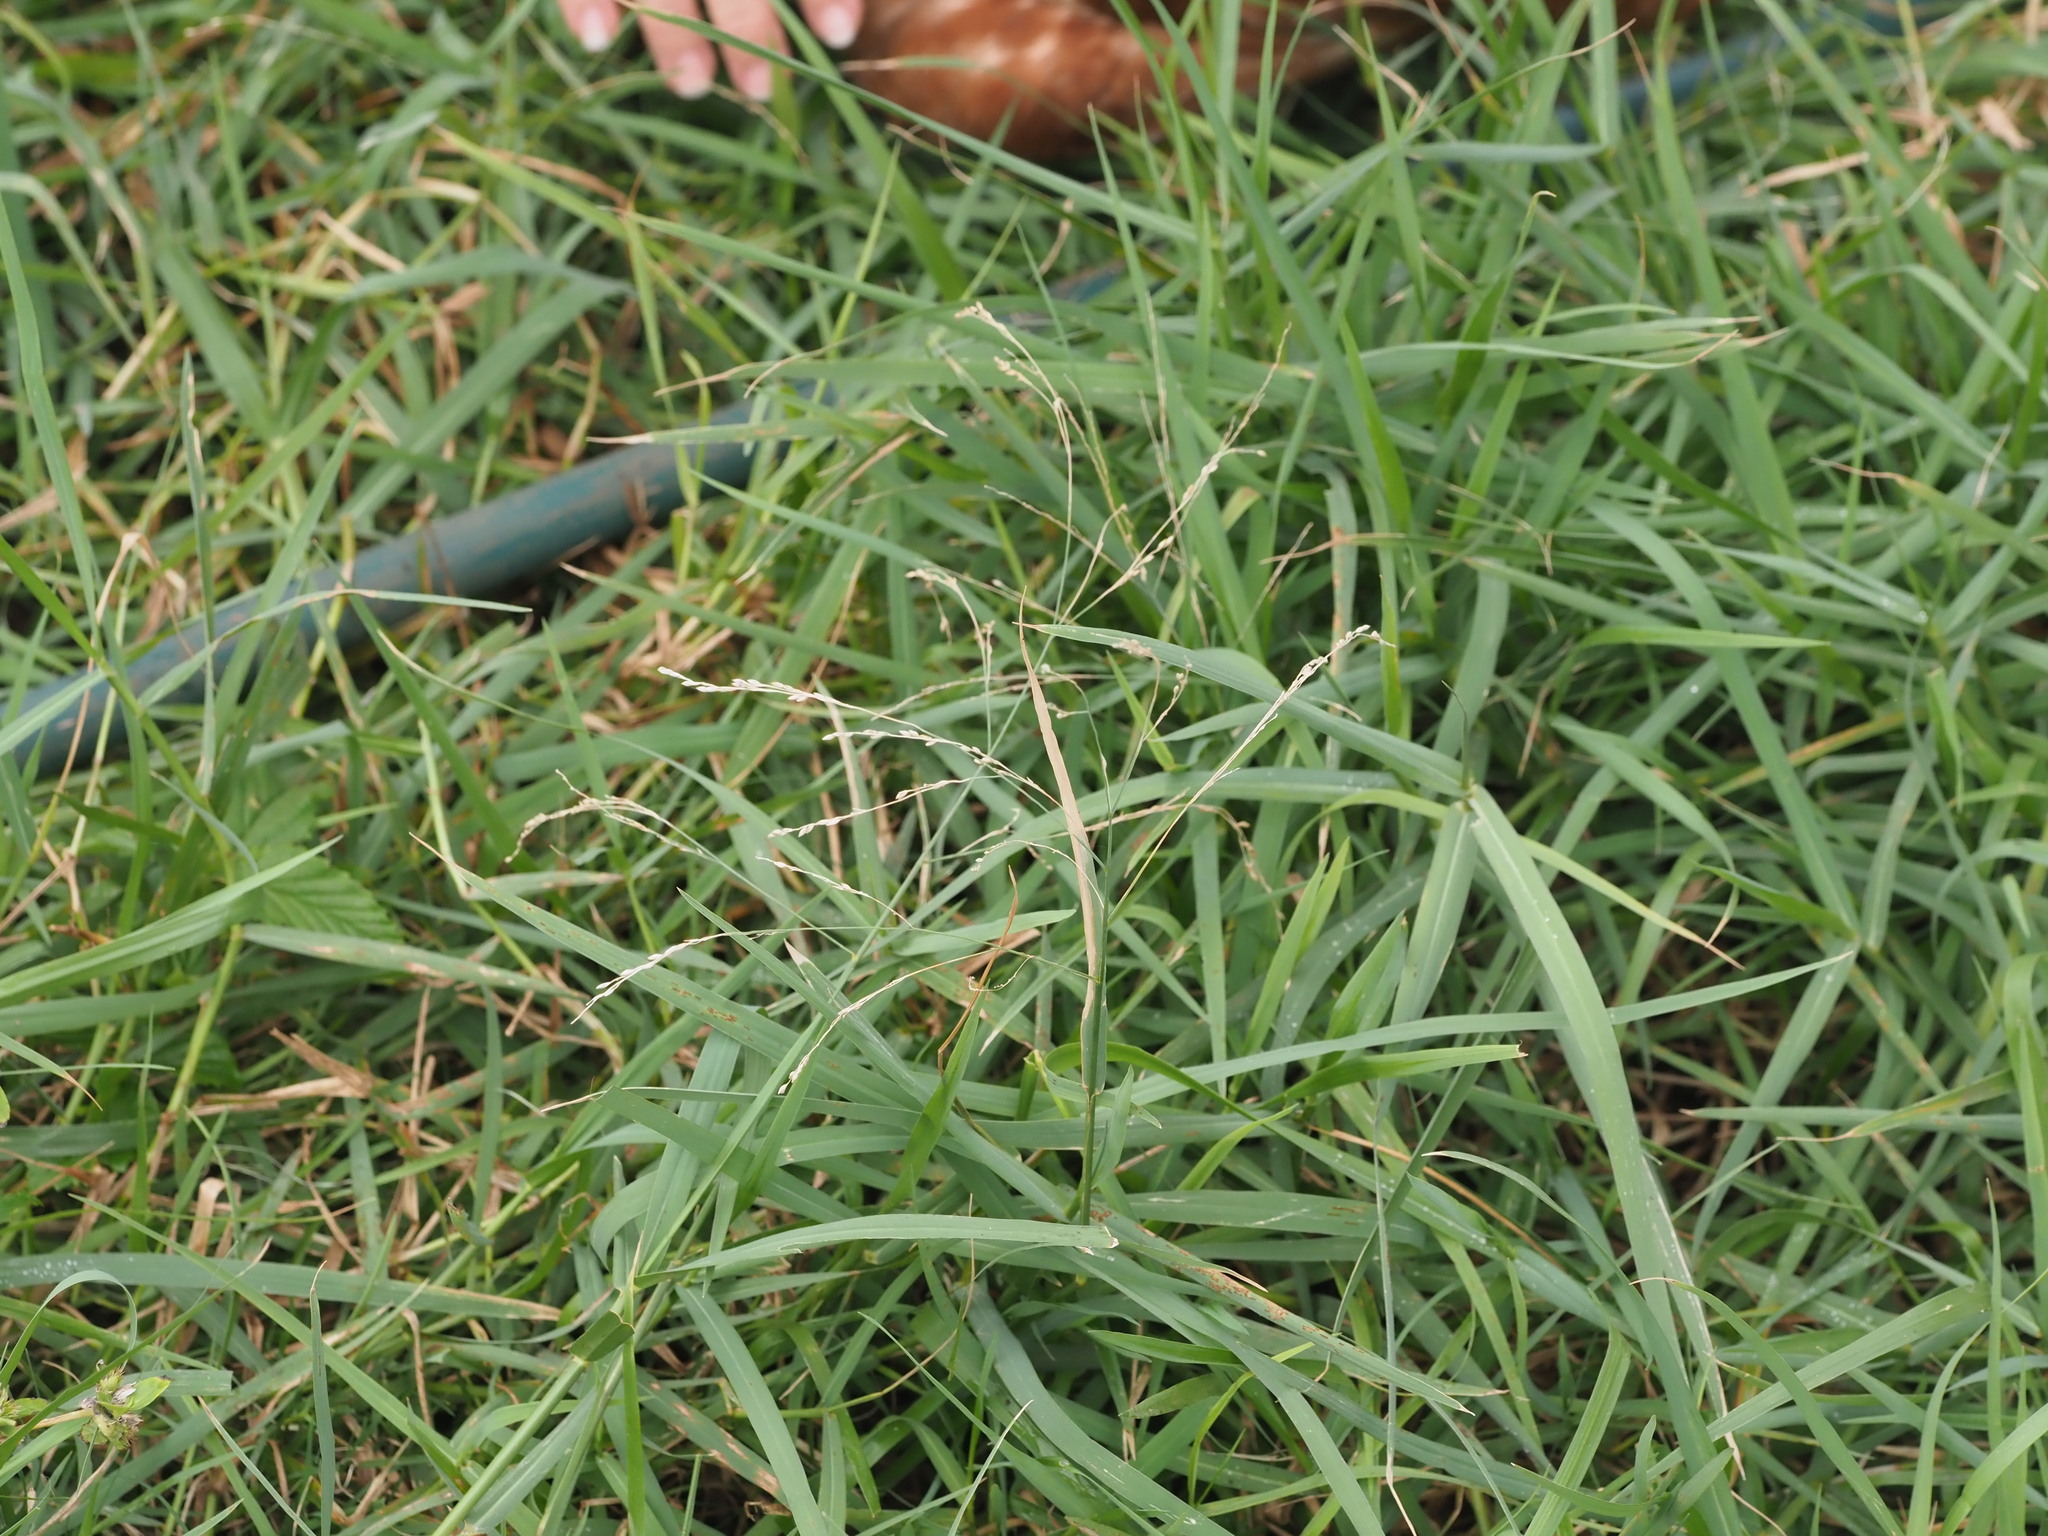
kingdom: Plantae
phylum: Tracheophyta
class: Liliopsida
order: Poales
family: Poaceae
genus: Panicum
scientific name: Panicum repens
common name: Torpedo grass
